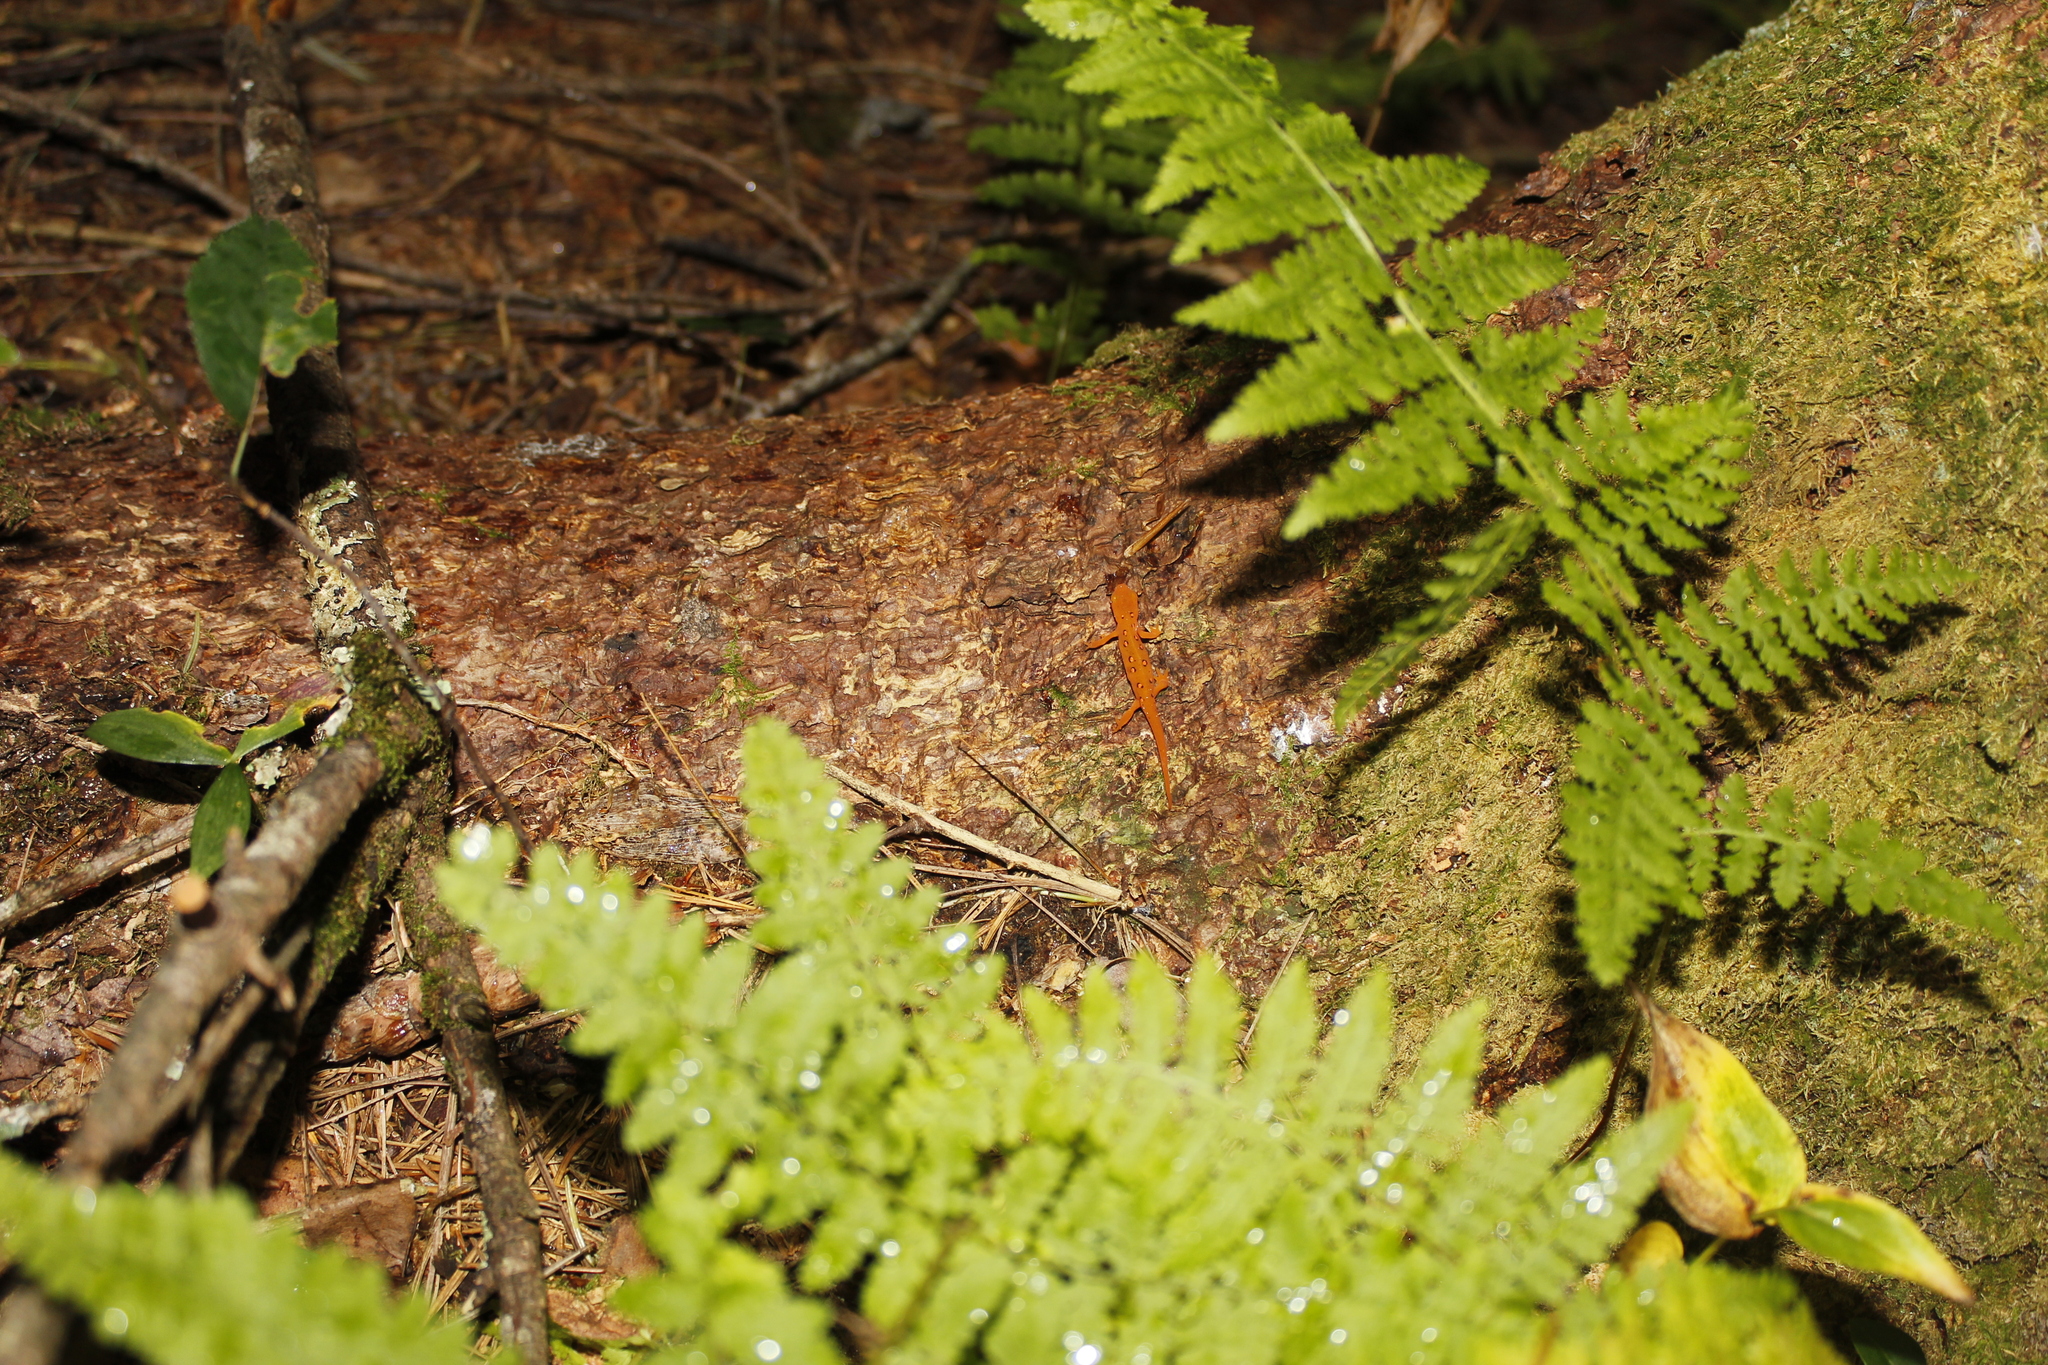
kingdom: Animalia
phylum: Chordata
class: Amphibia
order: Caudata
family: Salamandridae
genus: Notophthalmus
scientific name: Notophthalmus viridescens
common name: Eastern newt
